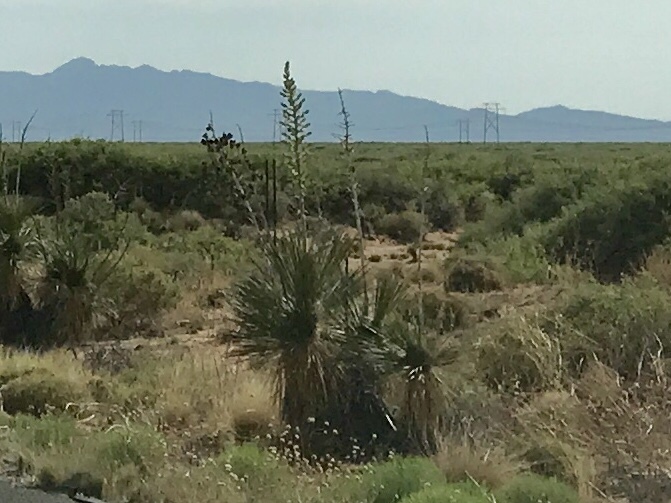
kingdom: Plantae
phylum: Tracheophyta
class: Liliopsida
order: Asparagales
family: Asparagaceae
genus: Yucca
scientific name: Yucca elata
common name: Palmella
